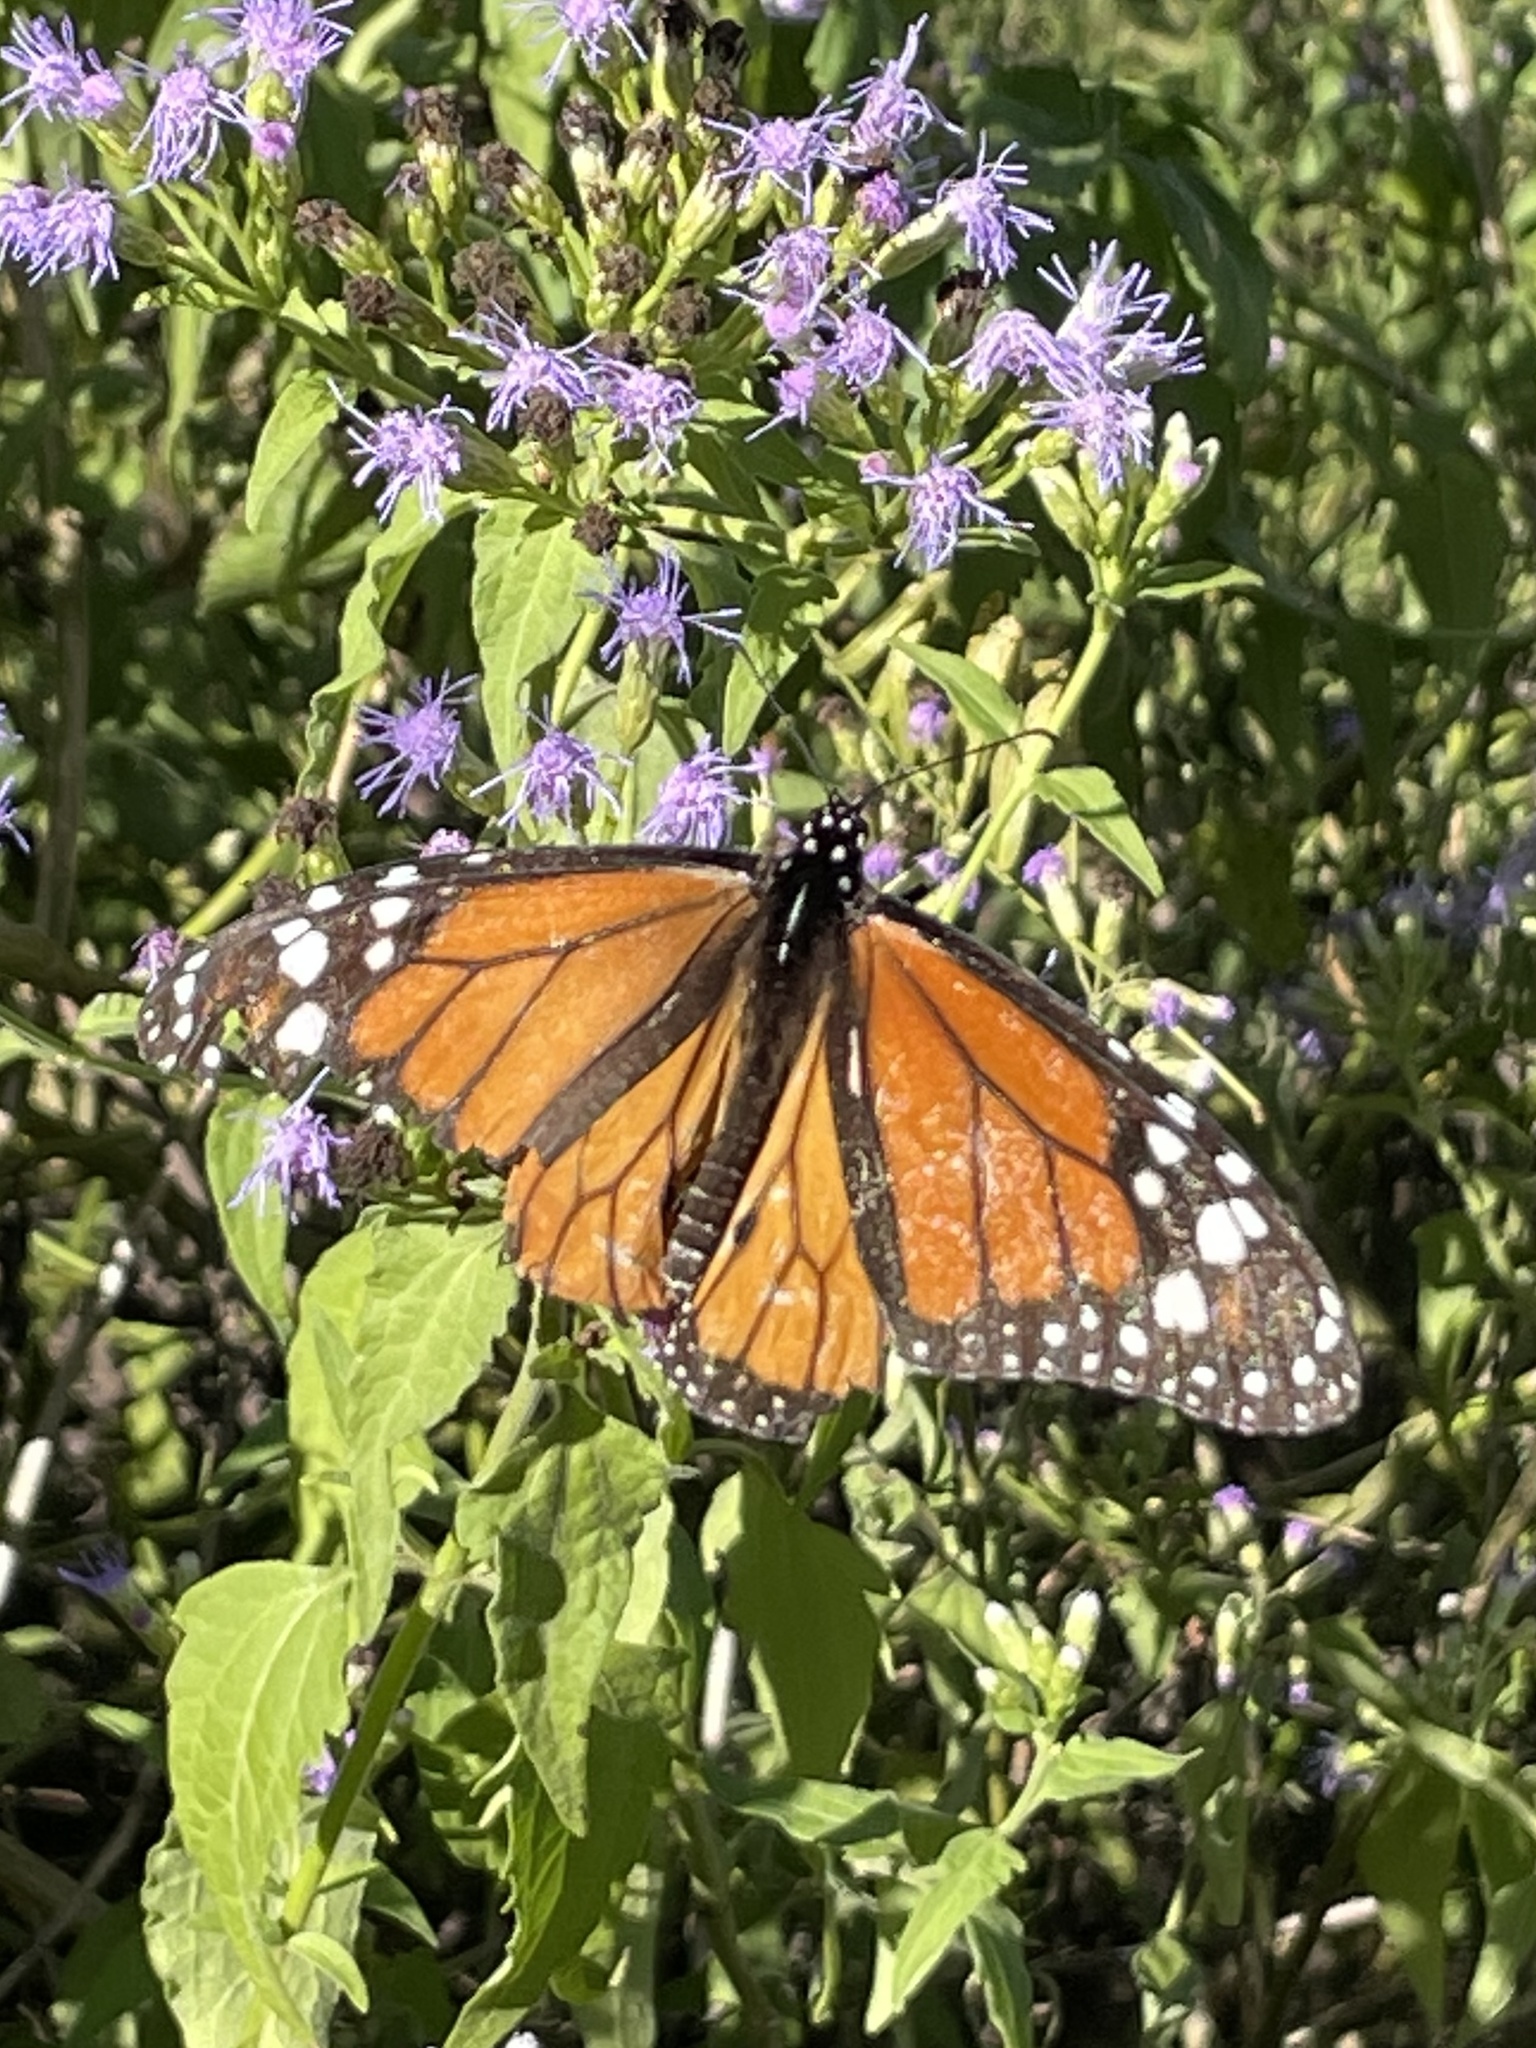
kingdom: Animalia
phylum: Arthropoda
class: Insecta
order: Lepidoptera
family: Nymphalidae
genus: Danaus
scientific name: Danaus plexippus
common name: Monarch
